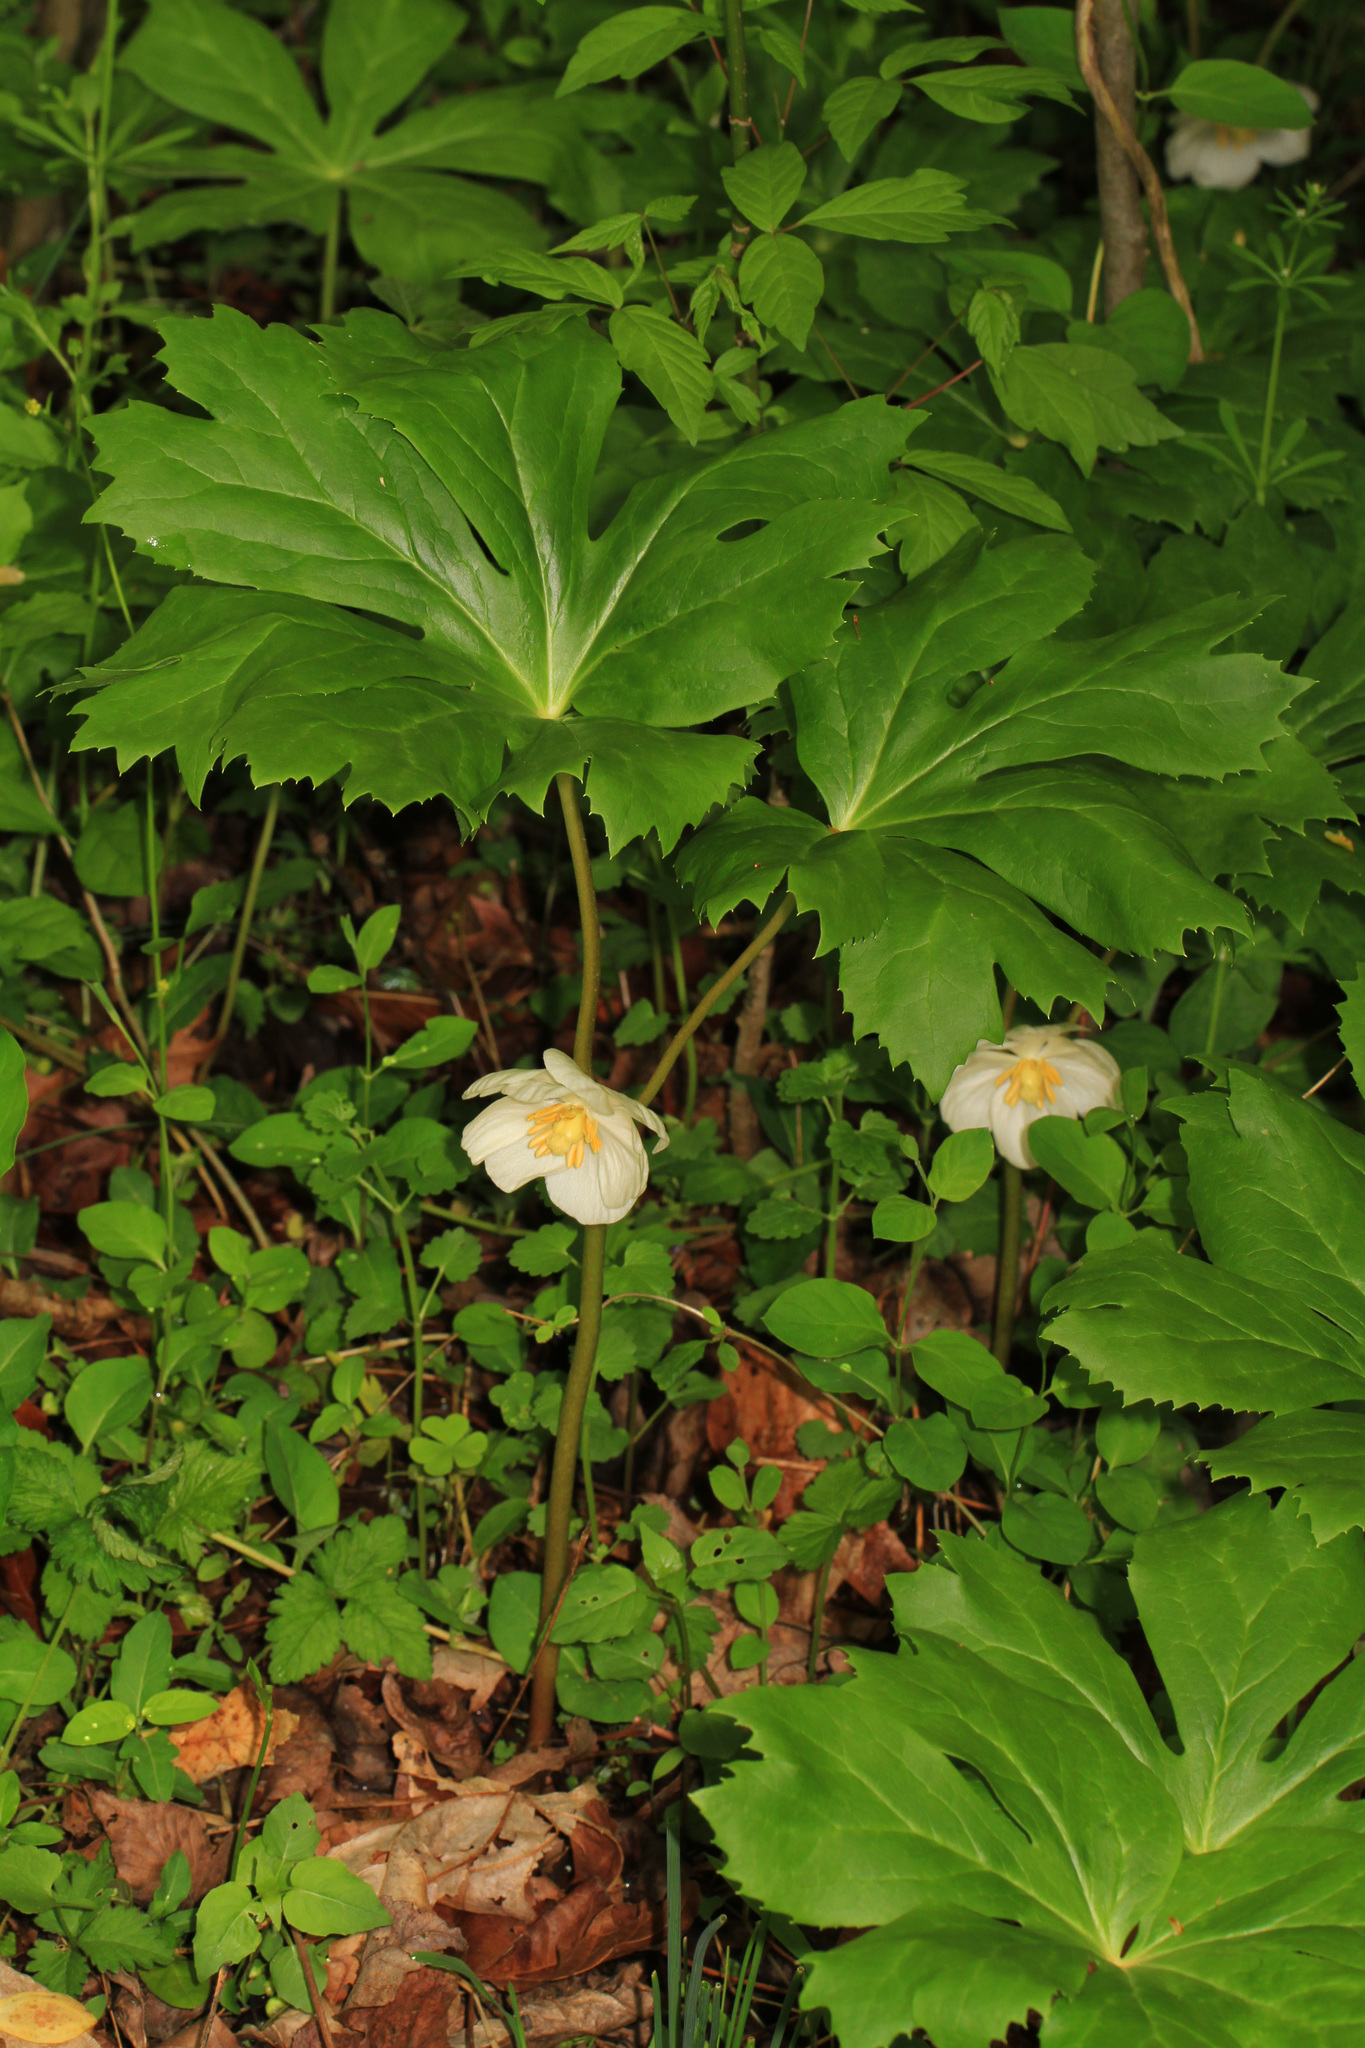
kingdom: Plantae
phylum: Tracheophyta
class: Magnoliopsida
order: Ranunculales
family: Berberidaceae
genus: Podophyllum
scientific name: Podophyllum peltatum
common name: Wild mandrake
